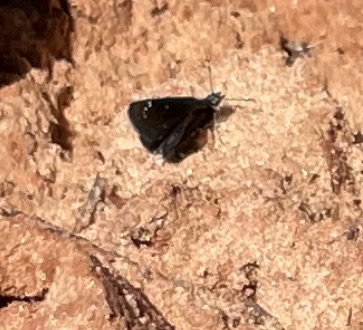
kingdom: Animalia
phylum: Arthropoda
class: Insecta
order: Lepidoptera
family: Hesperiidae
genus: Pholisora
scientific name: Pholisora catullus
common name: Common sootywing
